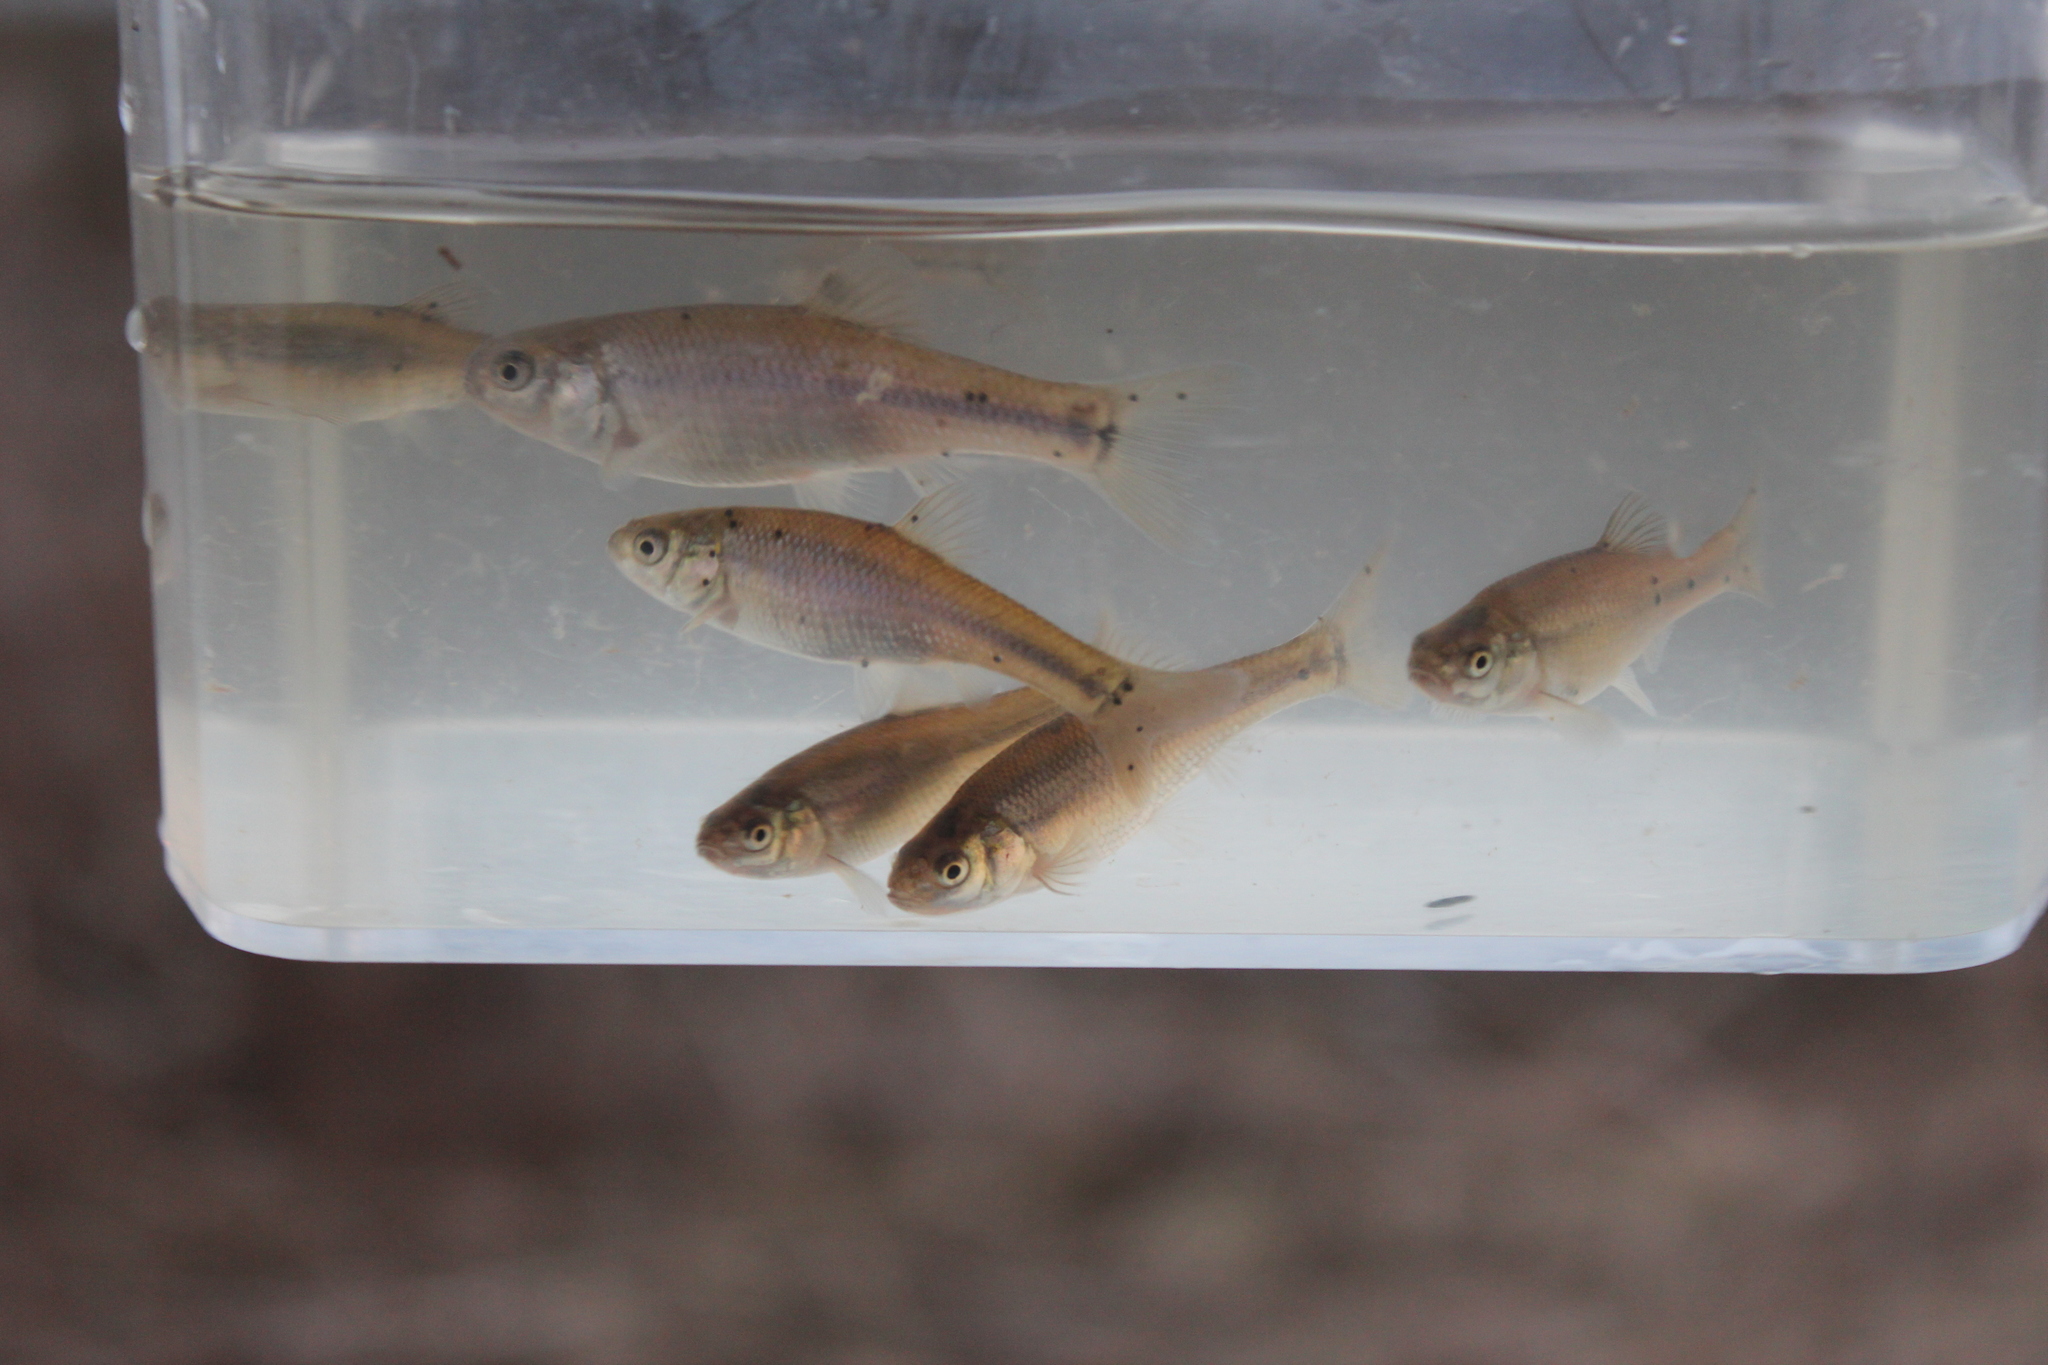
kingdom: Animalia
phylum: Chordata
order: Cypriniformes
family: Cyprinidae
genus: Pimephales
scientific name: Pimephales promelas
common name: Fathead minnow
